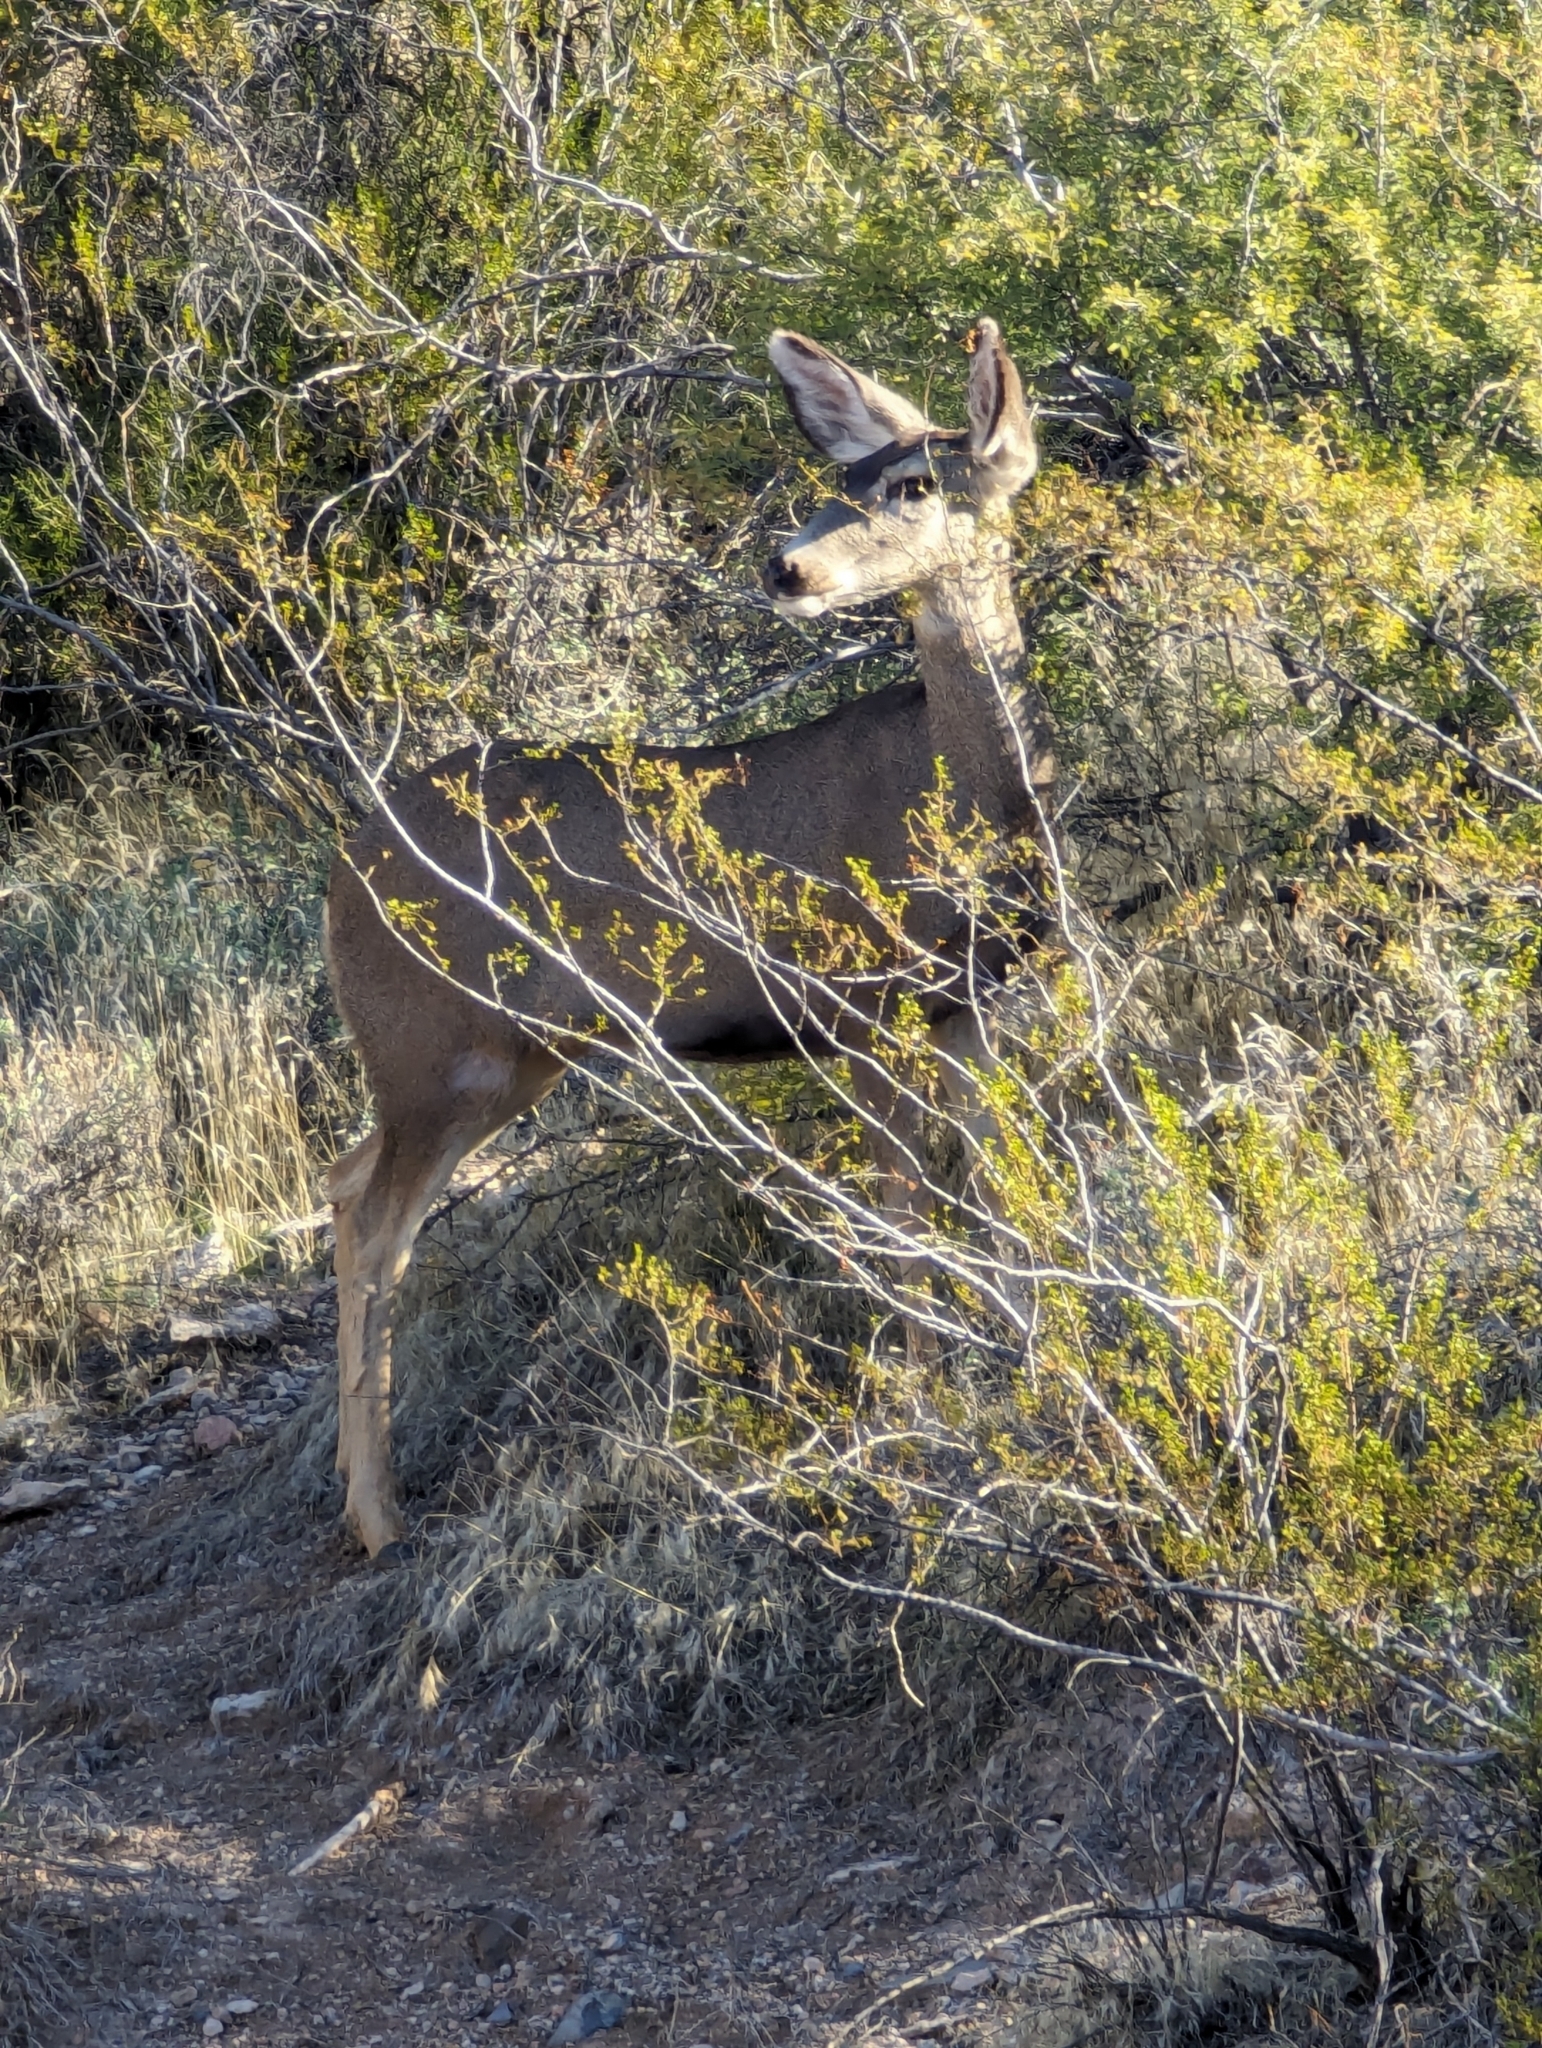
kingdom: Animalia
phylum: Chordata
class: Mammalia
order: Artiodactyla
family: Cervidae
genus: Odocoileus
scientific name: Odocoileus hemionus
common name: Mule deer
